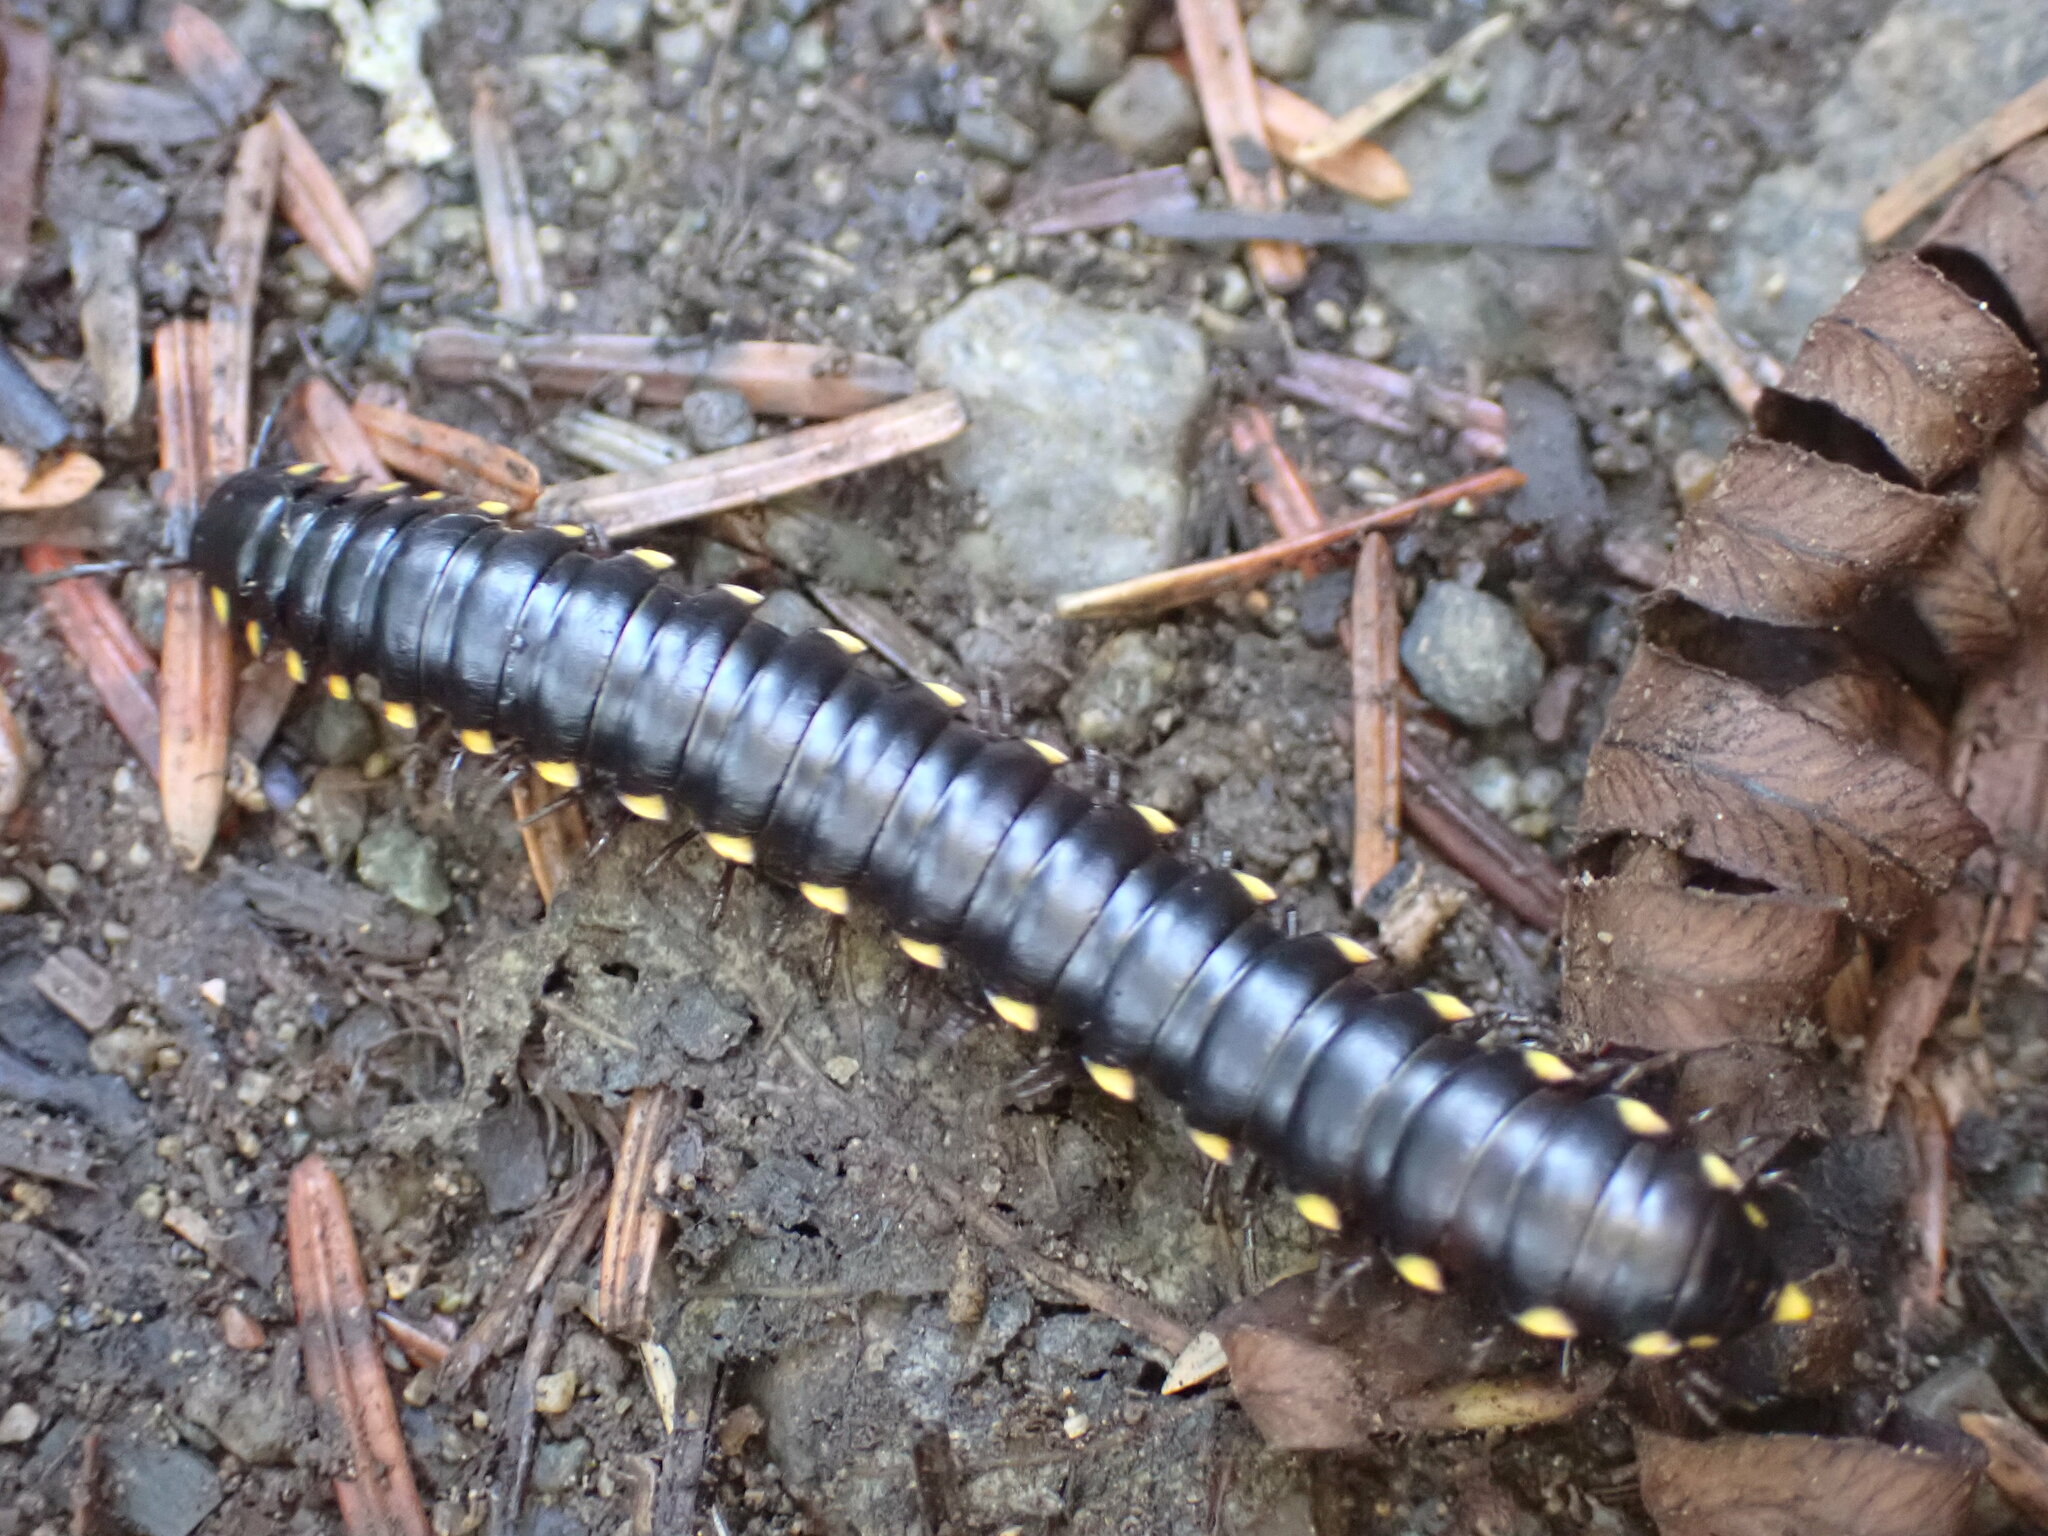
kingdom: Animalia
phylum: Arthropoda
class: Diplopoda
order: Polydesmida
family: Xystodesmidae
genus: Harpaphe
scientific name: Harpaphe haydeniana
